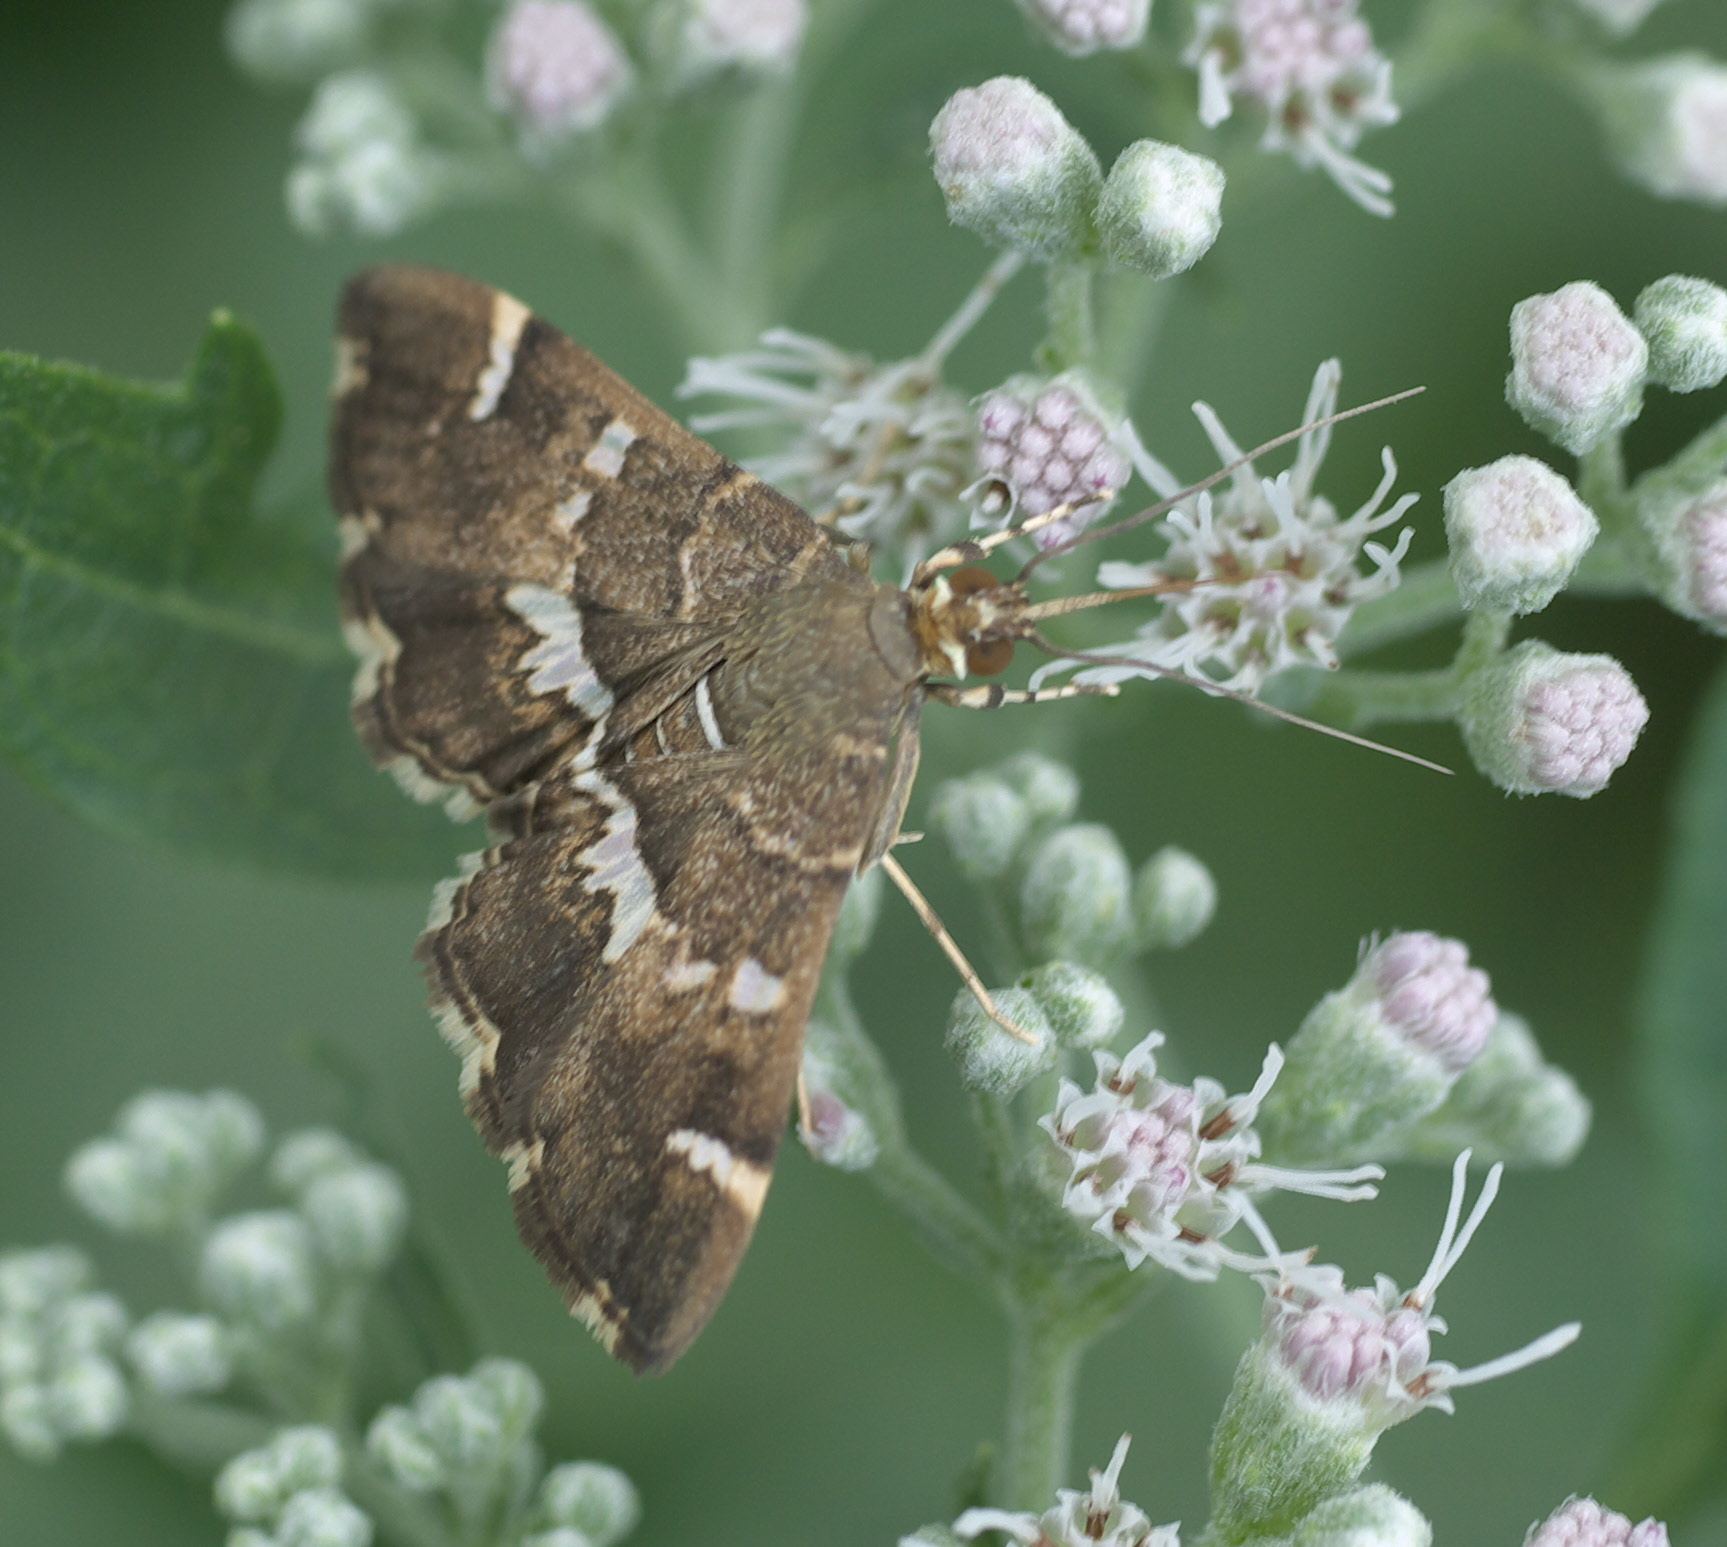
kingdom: Animalia
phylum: Arthropoda
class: Insecta
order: Lepidoptera
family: Crambidae
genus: Hymenia
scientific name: Hymenia perspectalis
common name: Spotted beet webworm
